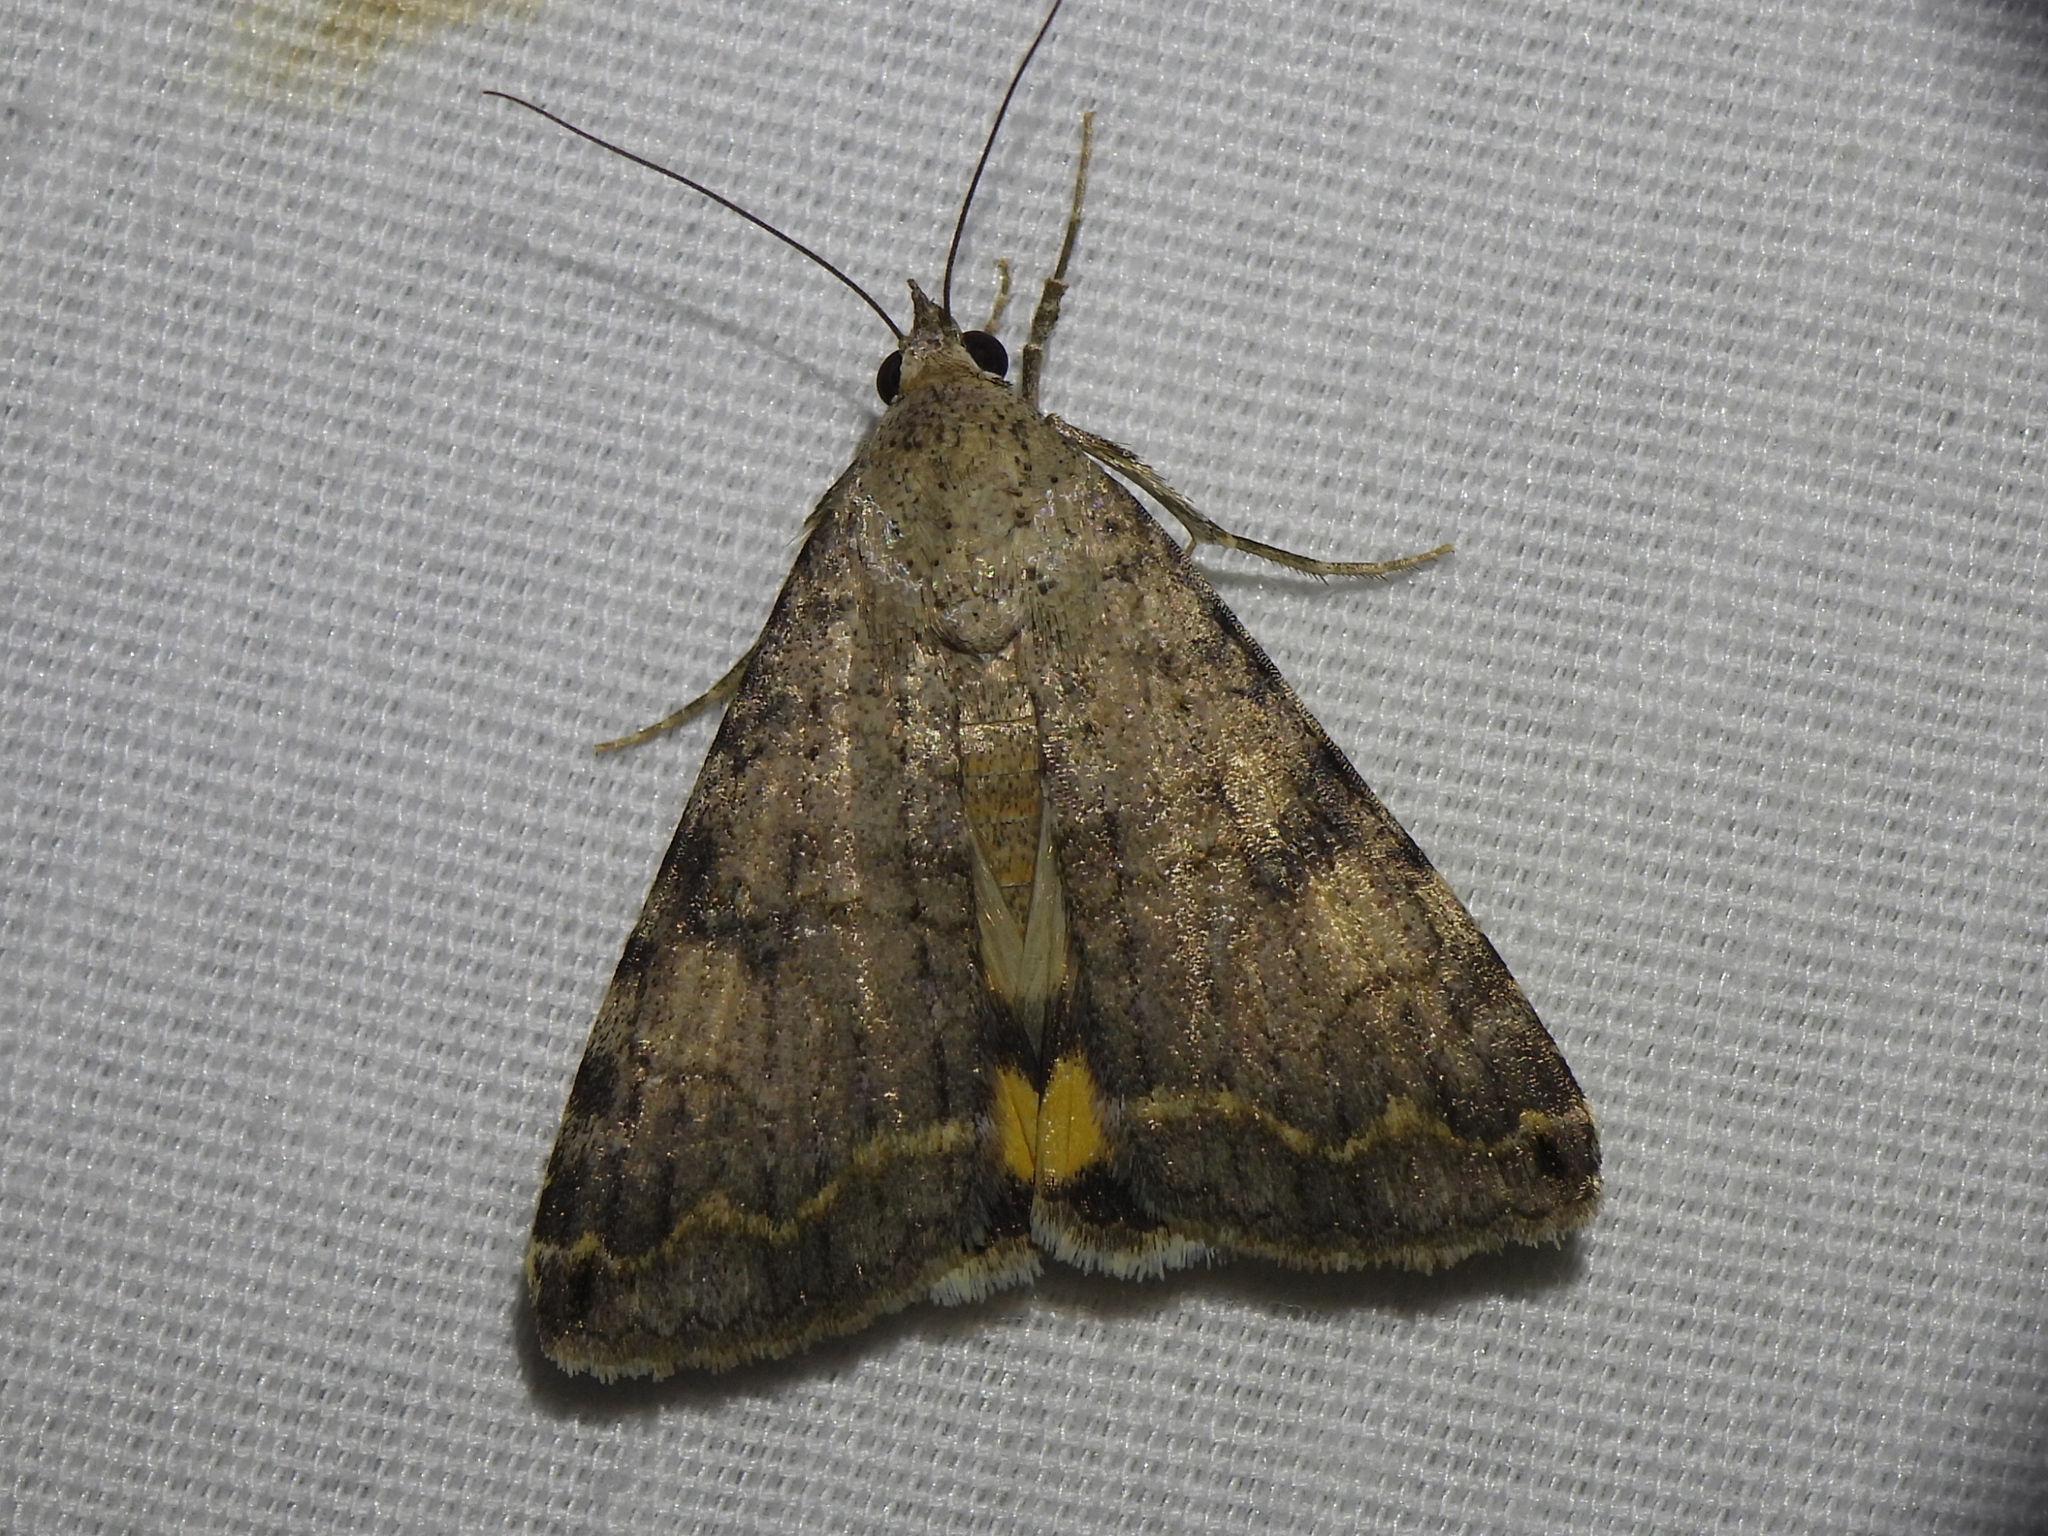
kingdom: Animalia
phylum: Arthropoda
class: Insecta
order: Lepidoptera
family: Erebidae
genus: Bulia
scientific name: Bulia deducta
